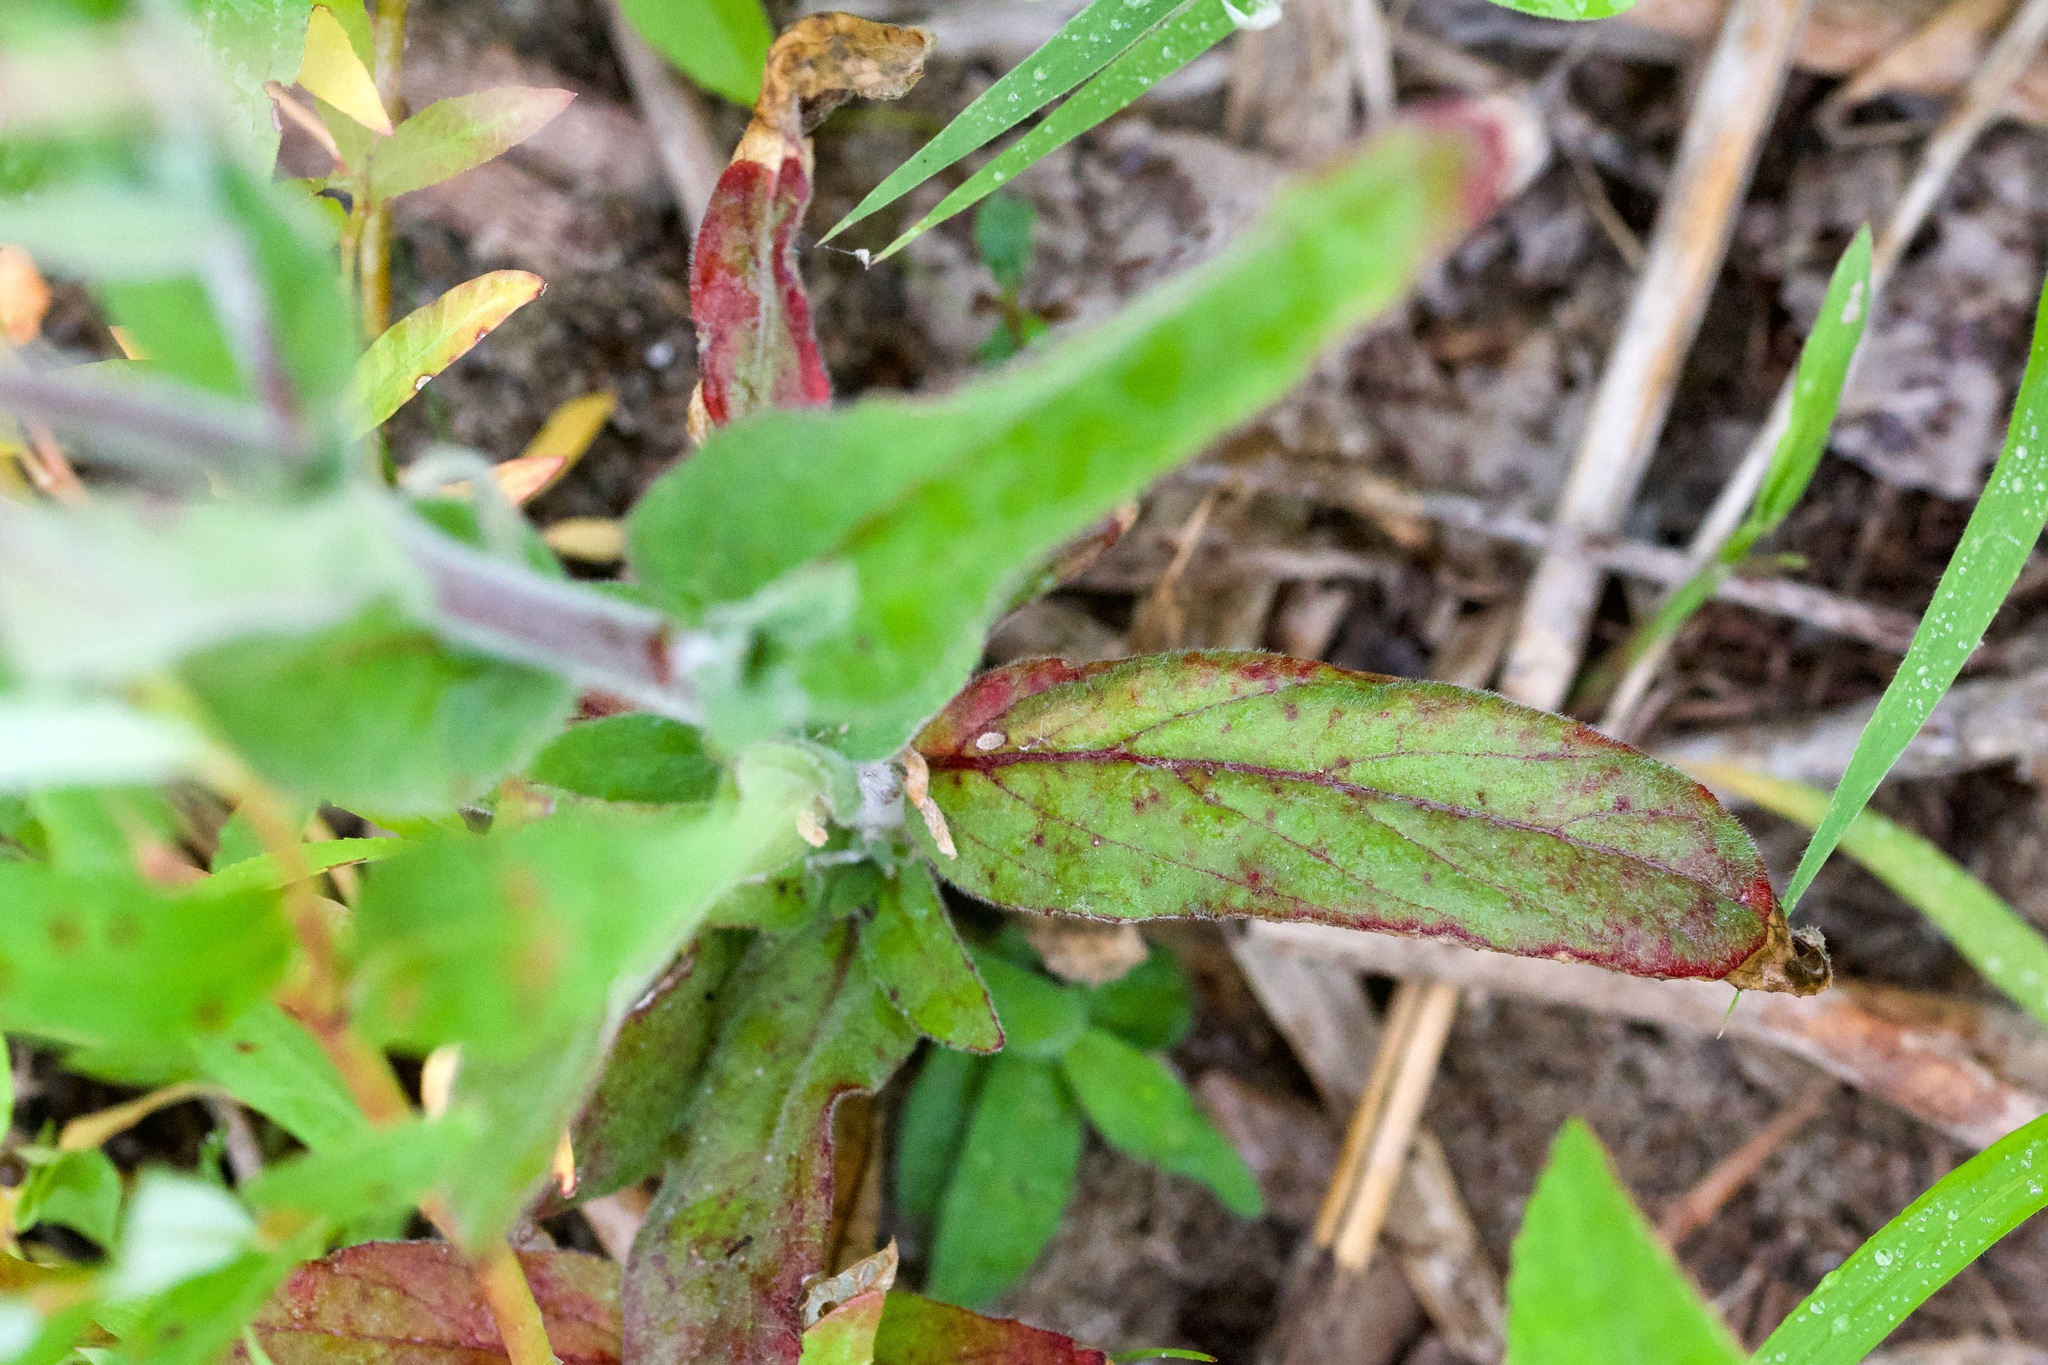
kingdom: Plantae
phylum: Tracheophyta
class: Magnoliopsida
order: Myrtales
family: Onagraceae
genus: Epilobium
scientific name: Epilobium parviflorum
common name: Hoary willowherb
